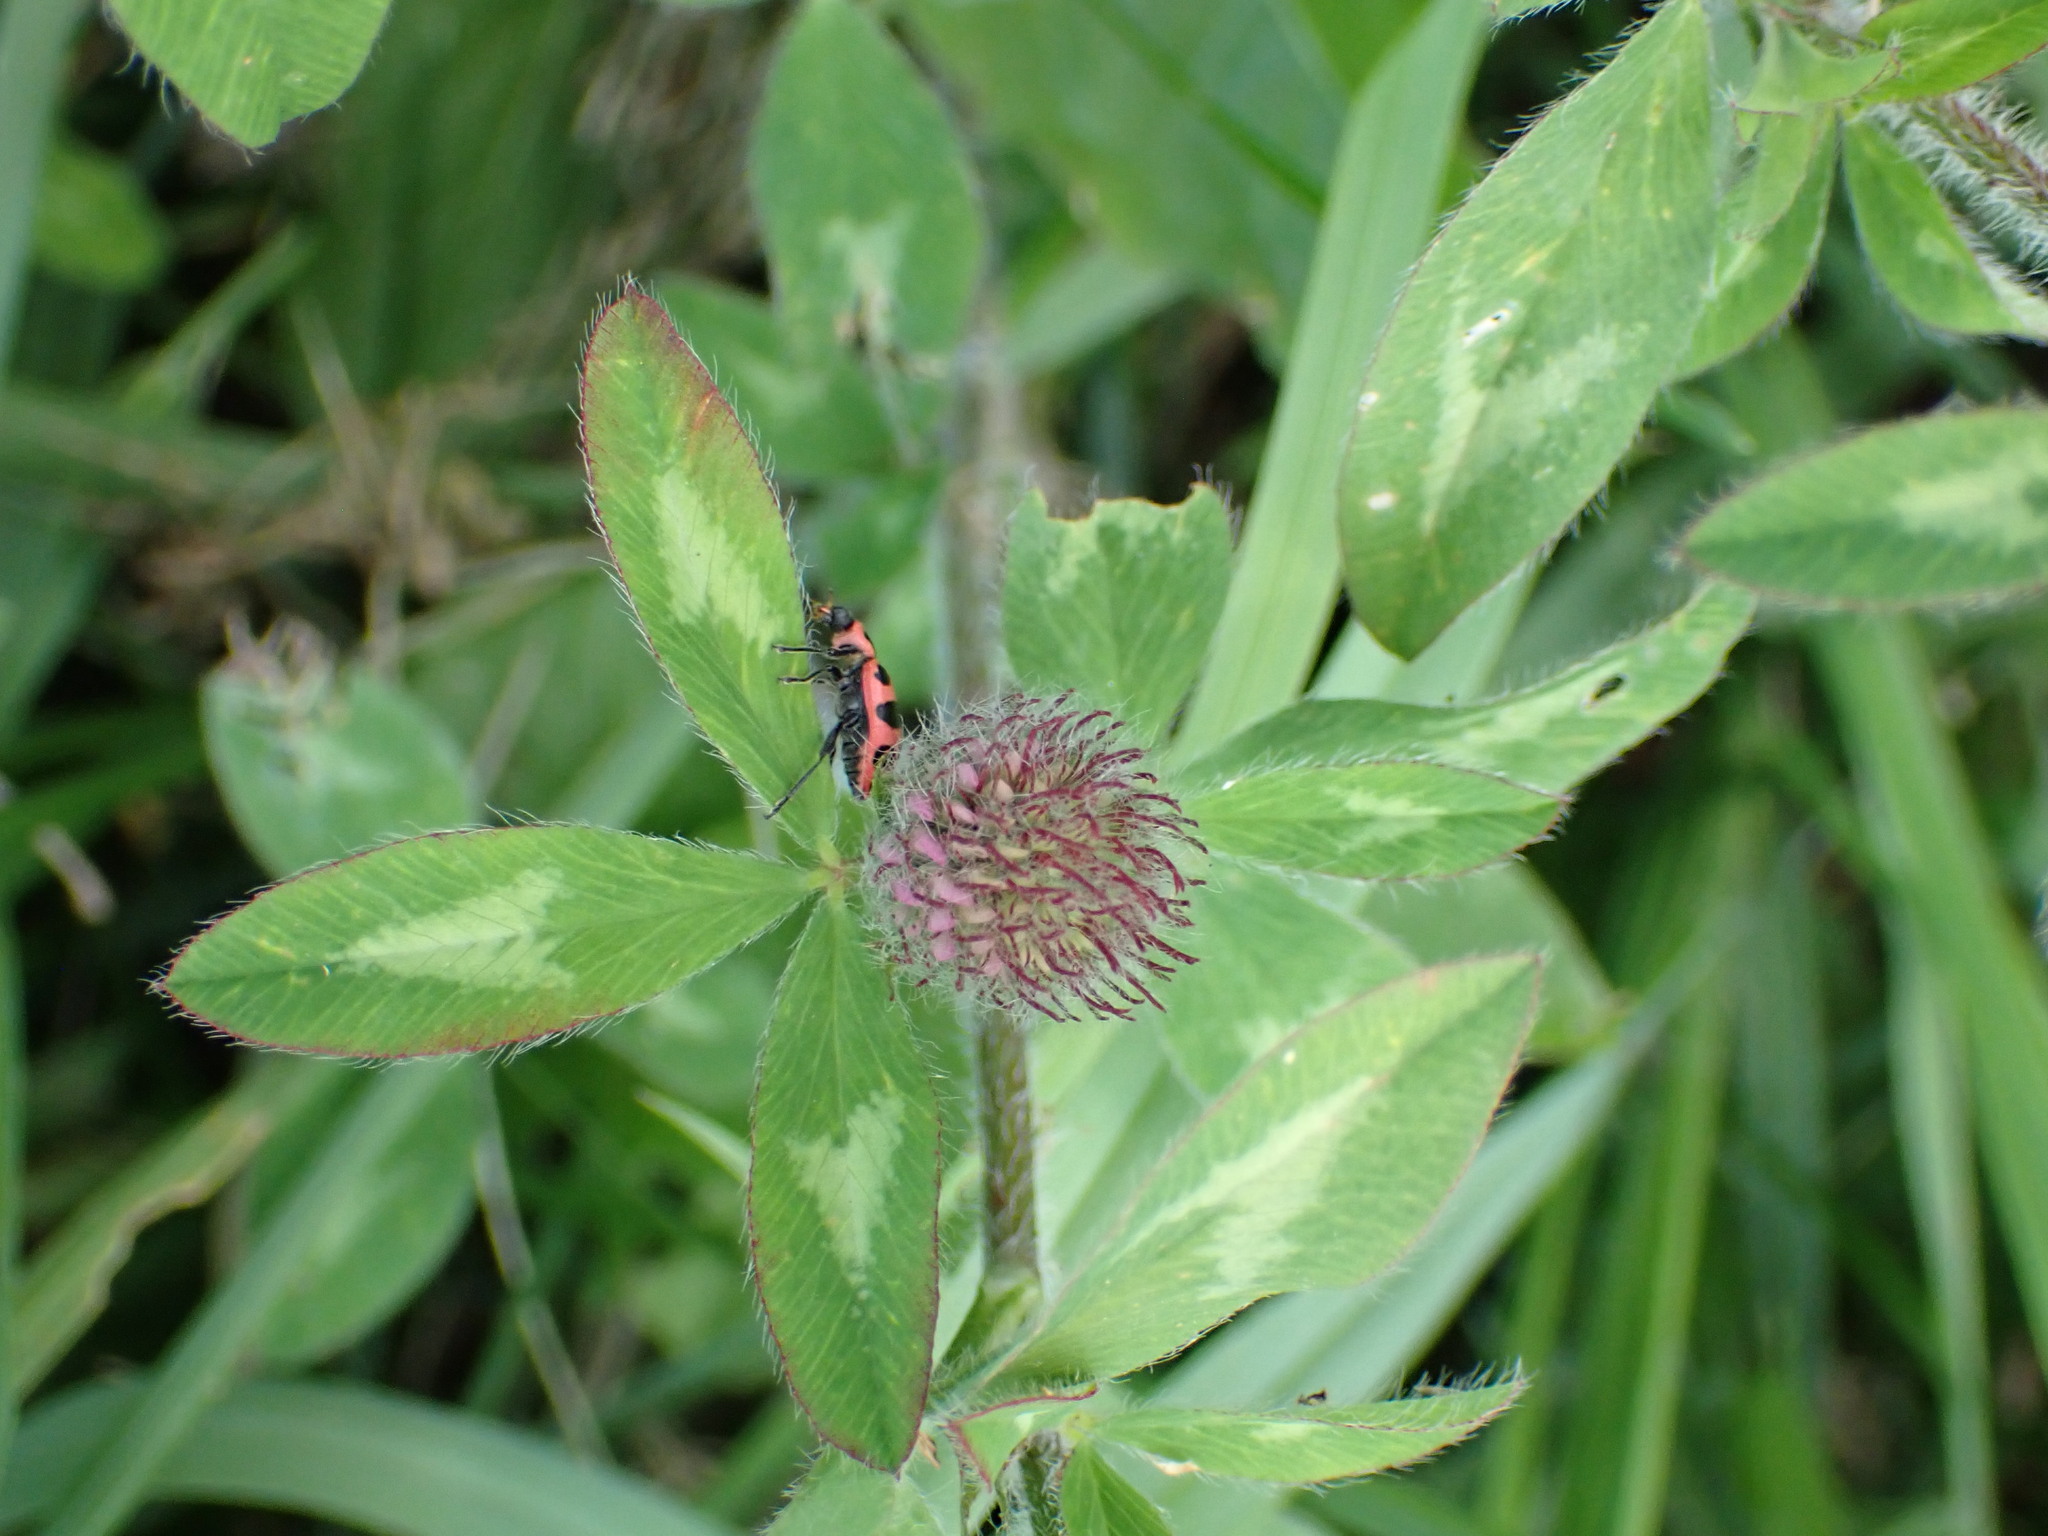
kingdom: Plantae
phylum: Tracheophyta
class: Magnoliopsida
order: Fabales
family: Fabaceae
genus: Trifolium
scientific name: Trifolium pratense
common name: Red clover
